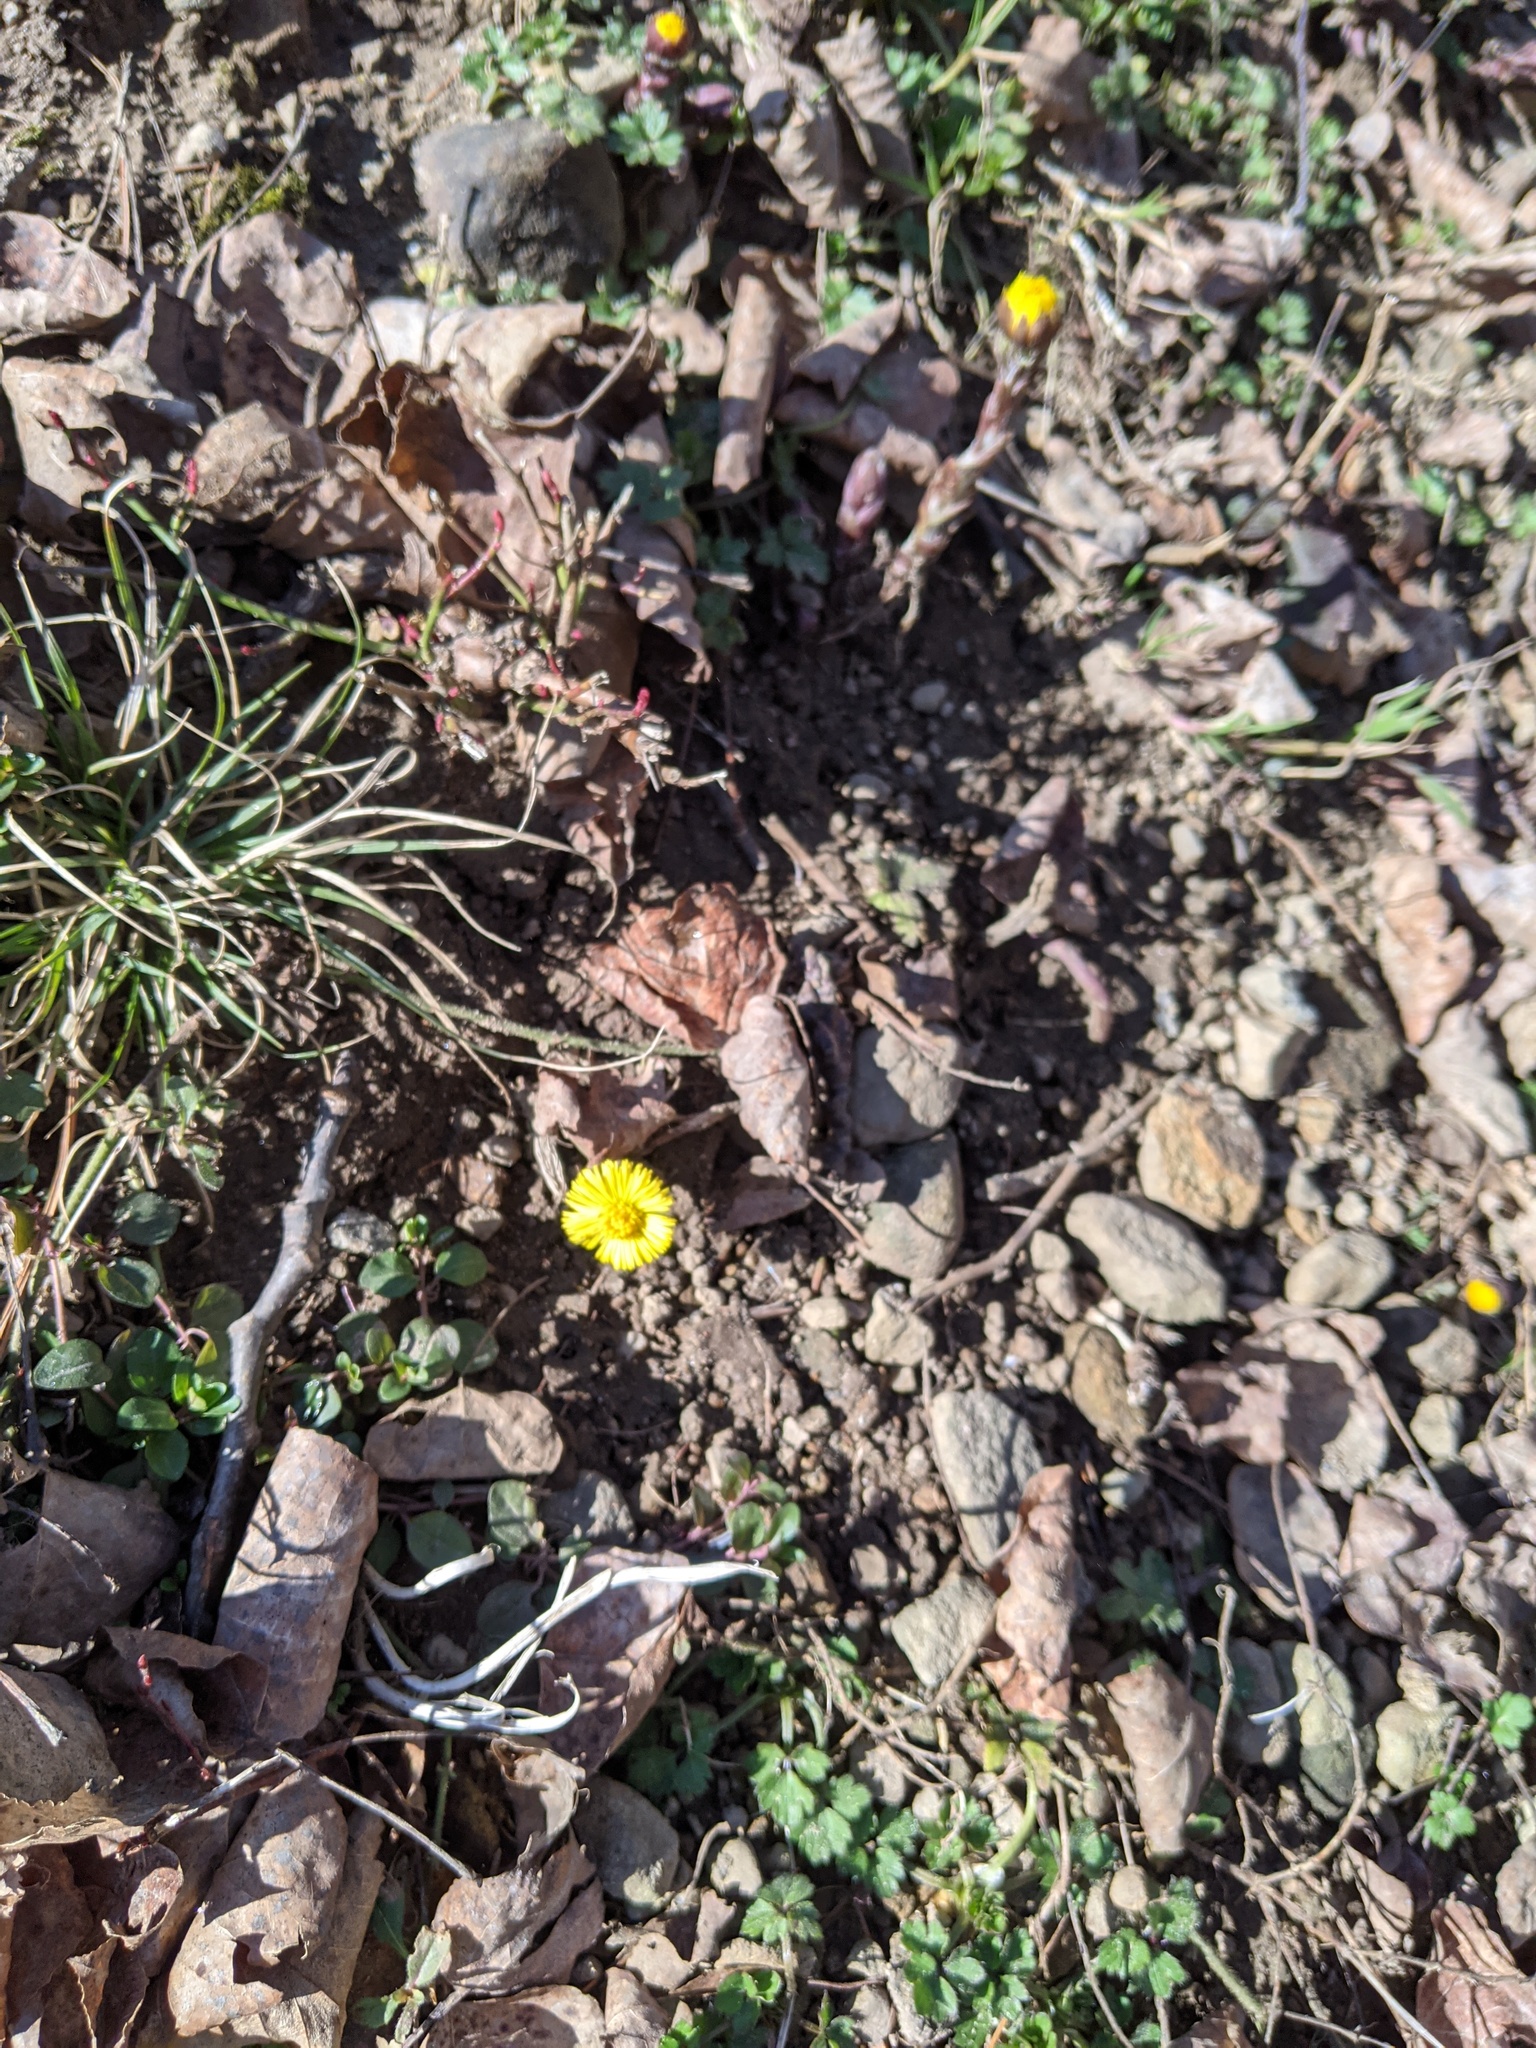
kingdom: Plantae
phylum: Tracheophyta
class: Magnoliopsida
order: Asterales
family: Asteraceae
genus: Tussilago
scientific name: Tussilago farfara
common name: Coltsfoot
